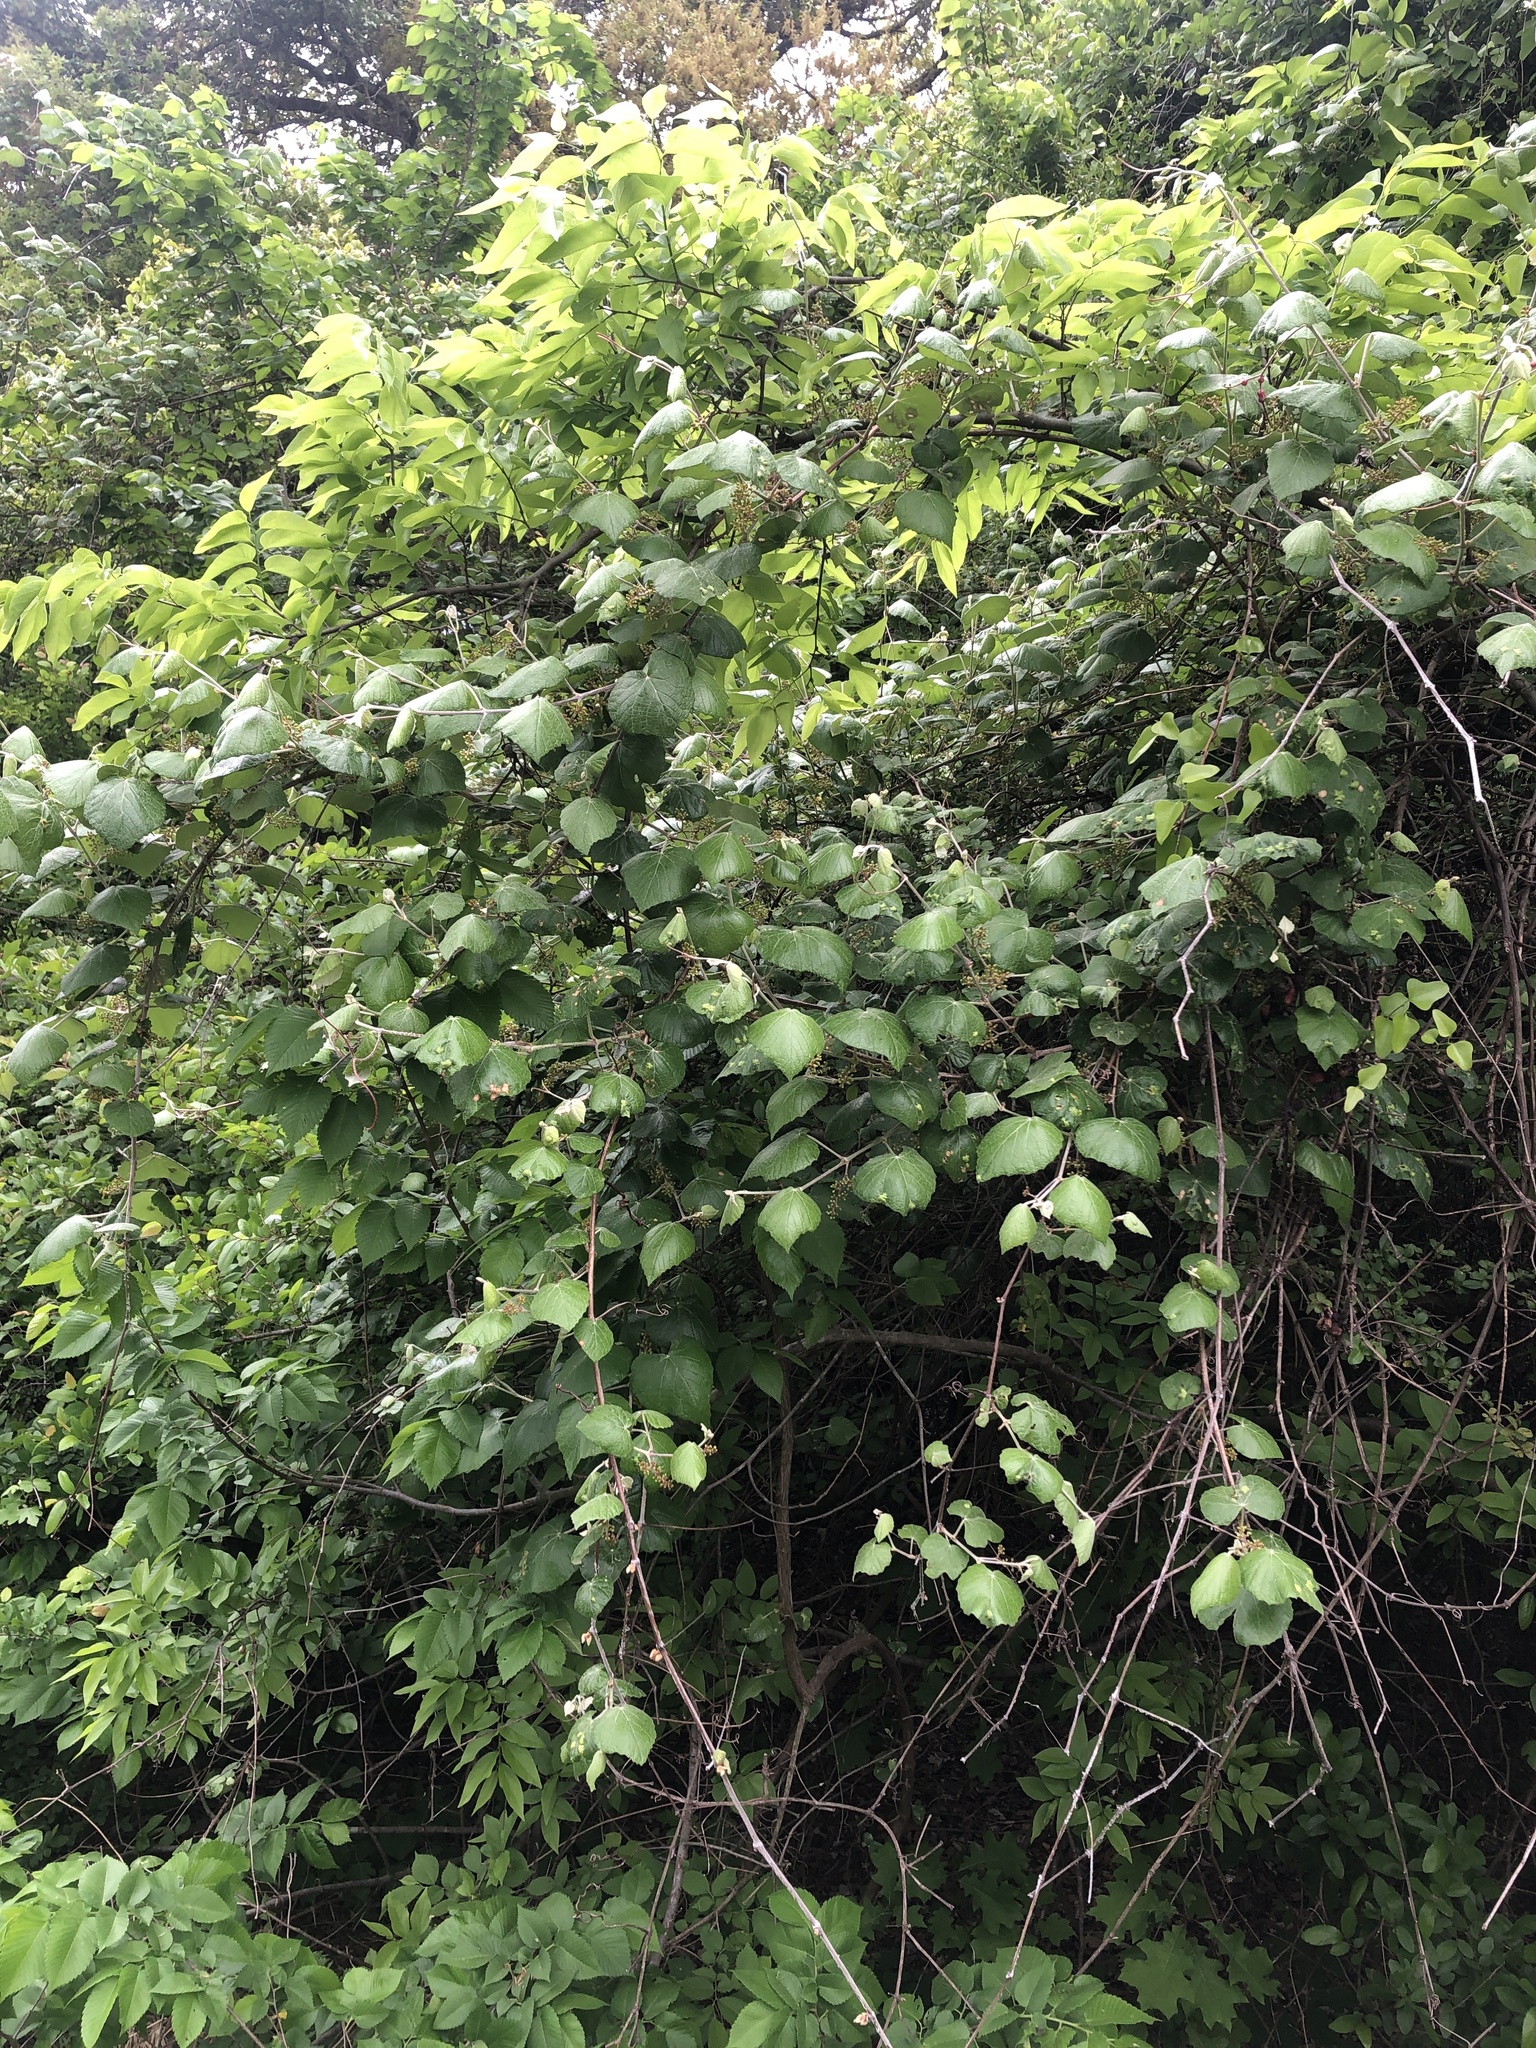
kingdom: Plantae
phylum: Tracheophyta
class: Magnoliopsida
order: Vitales
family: Vitaceae
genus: Vitis
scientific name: Vitis mustangensis
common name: Mustang grape
